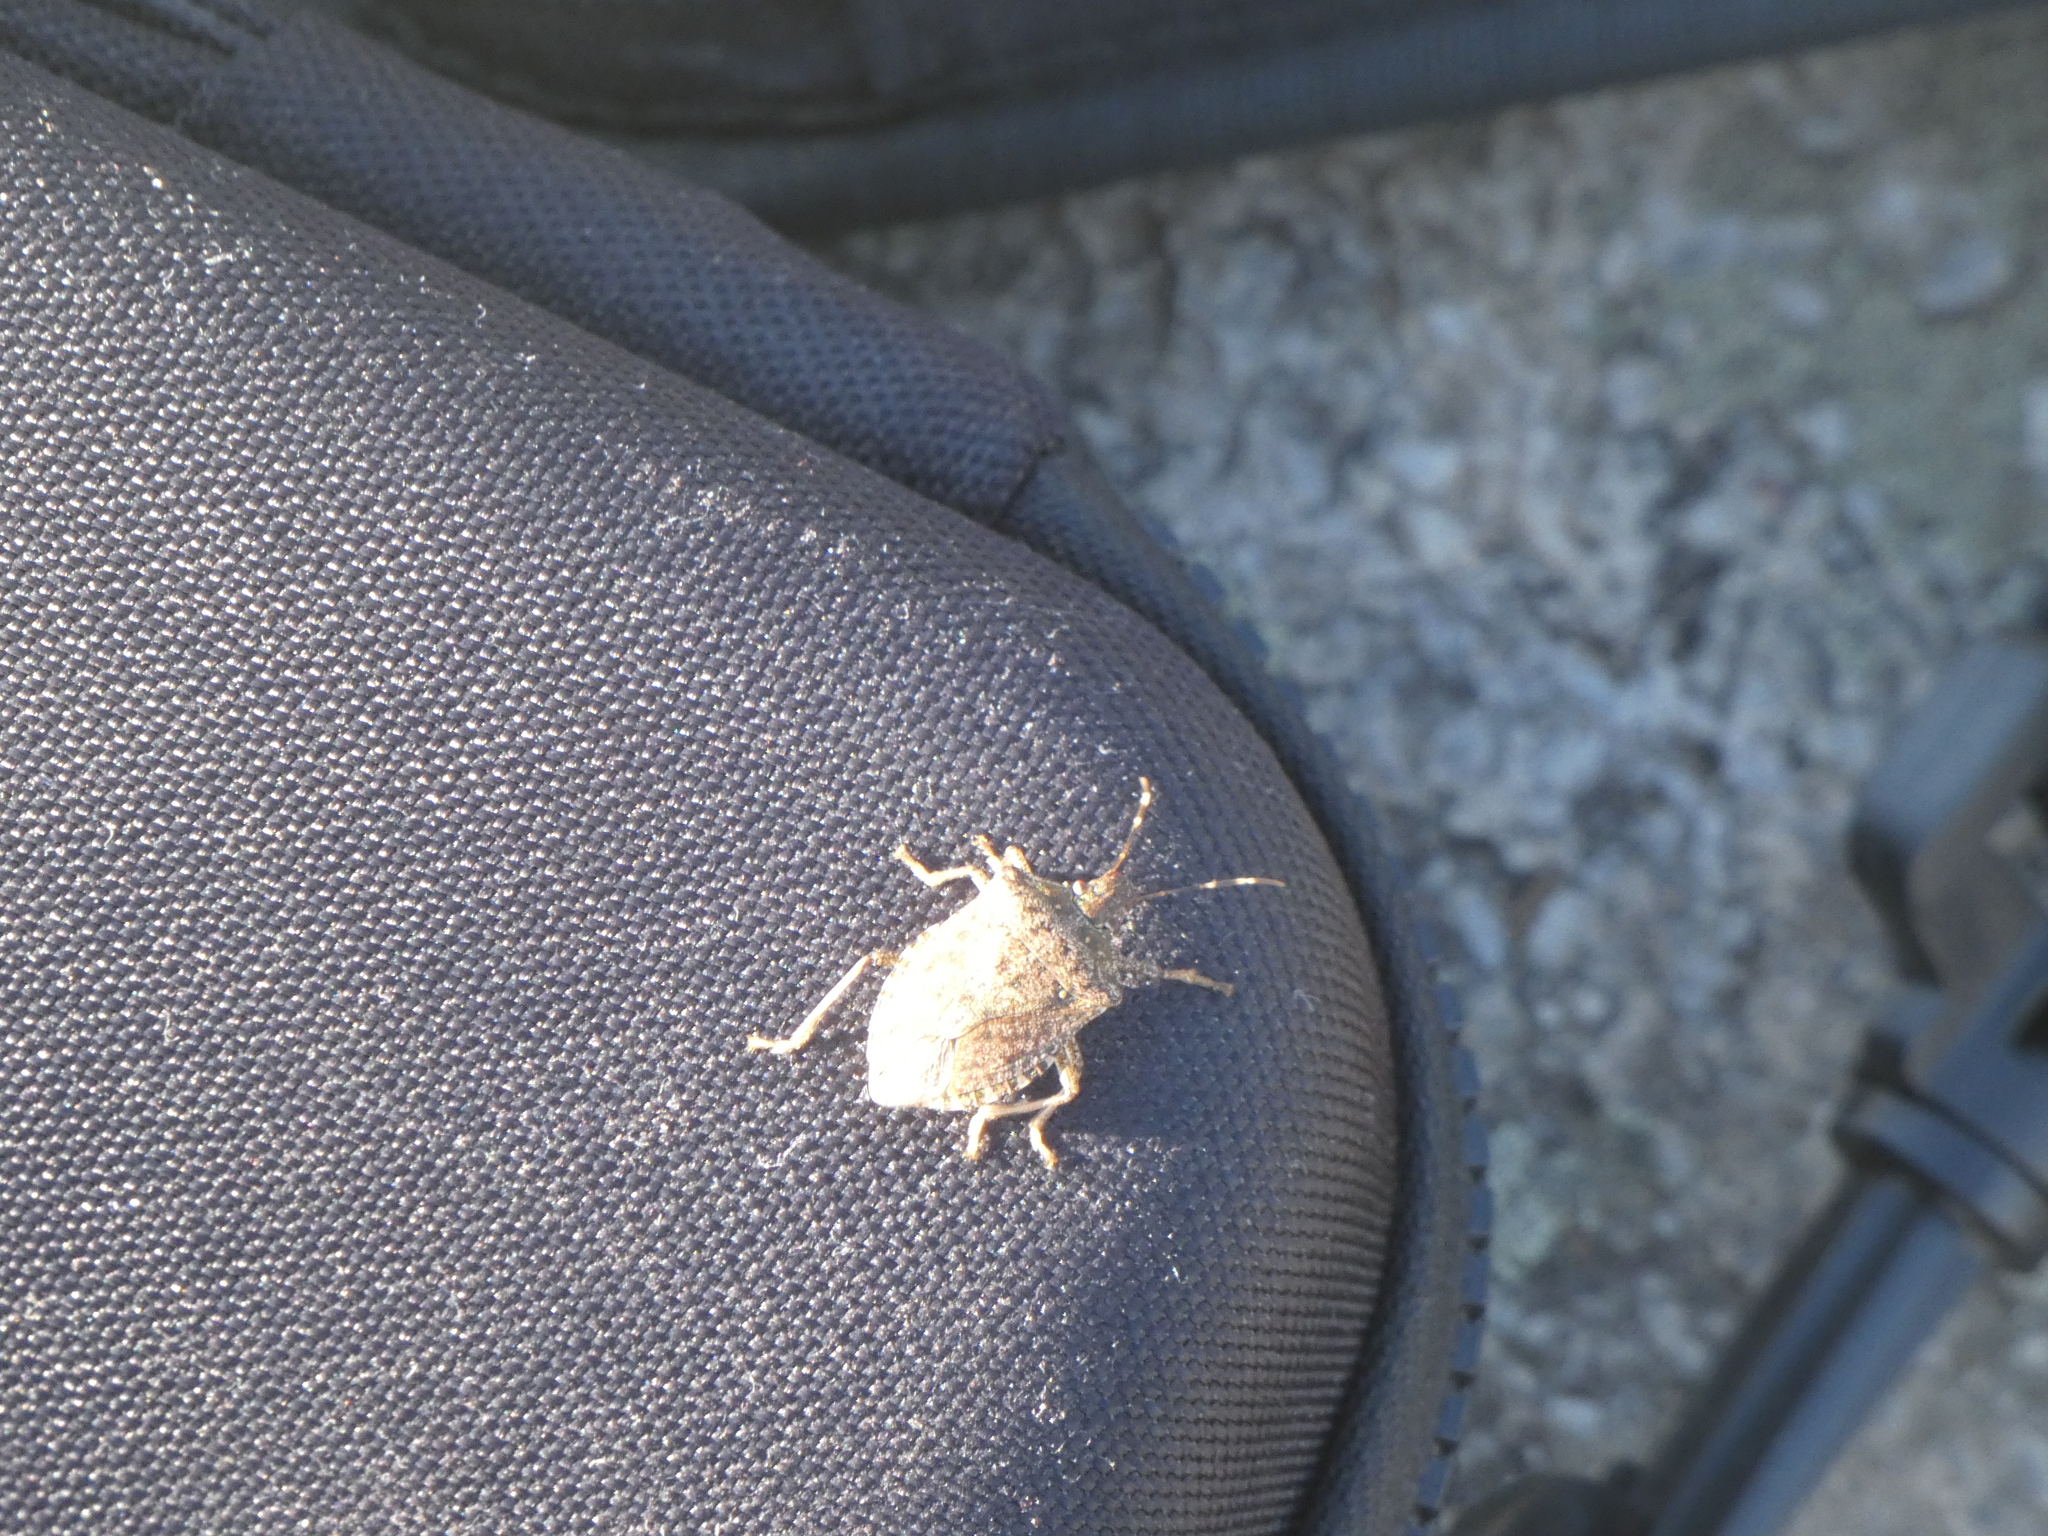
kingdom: Animalia
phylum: Arthropoda
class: Insecta
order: Hemiptera
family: Pentatomidae
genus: Halyomorpha
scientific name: Halyomorpha halys
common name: Brown marmorated stink bug
